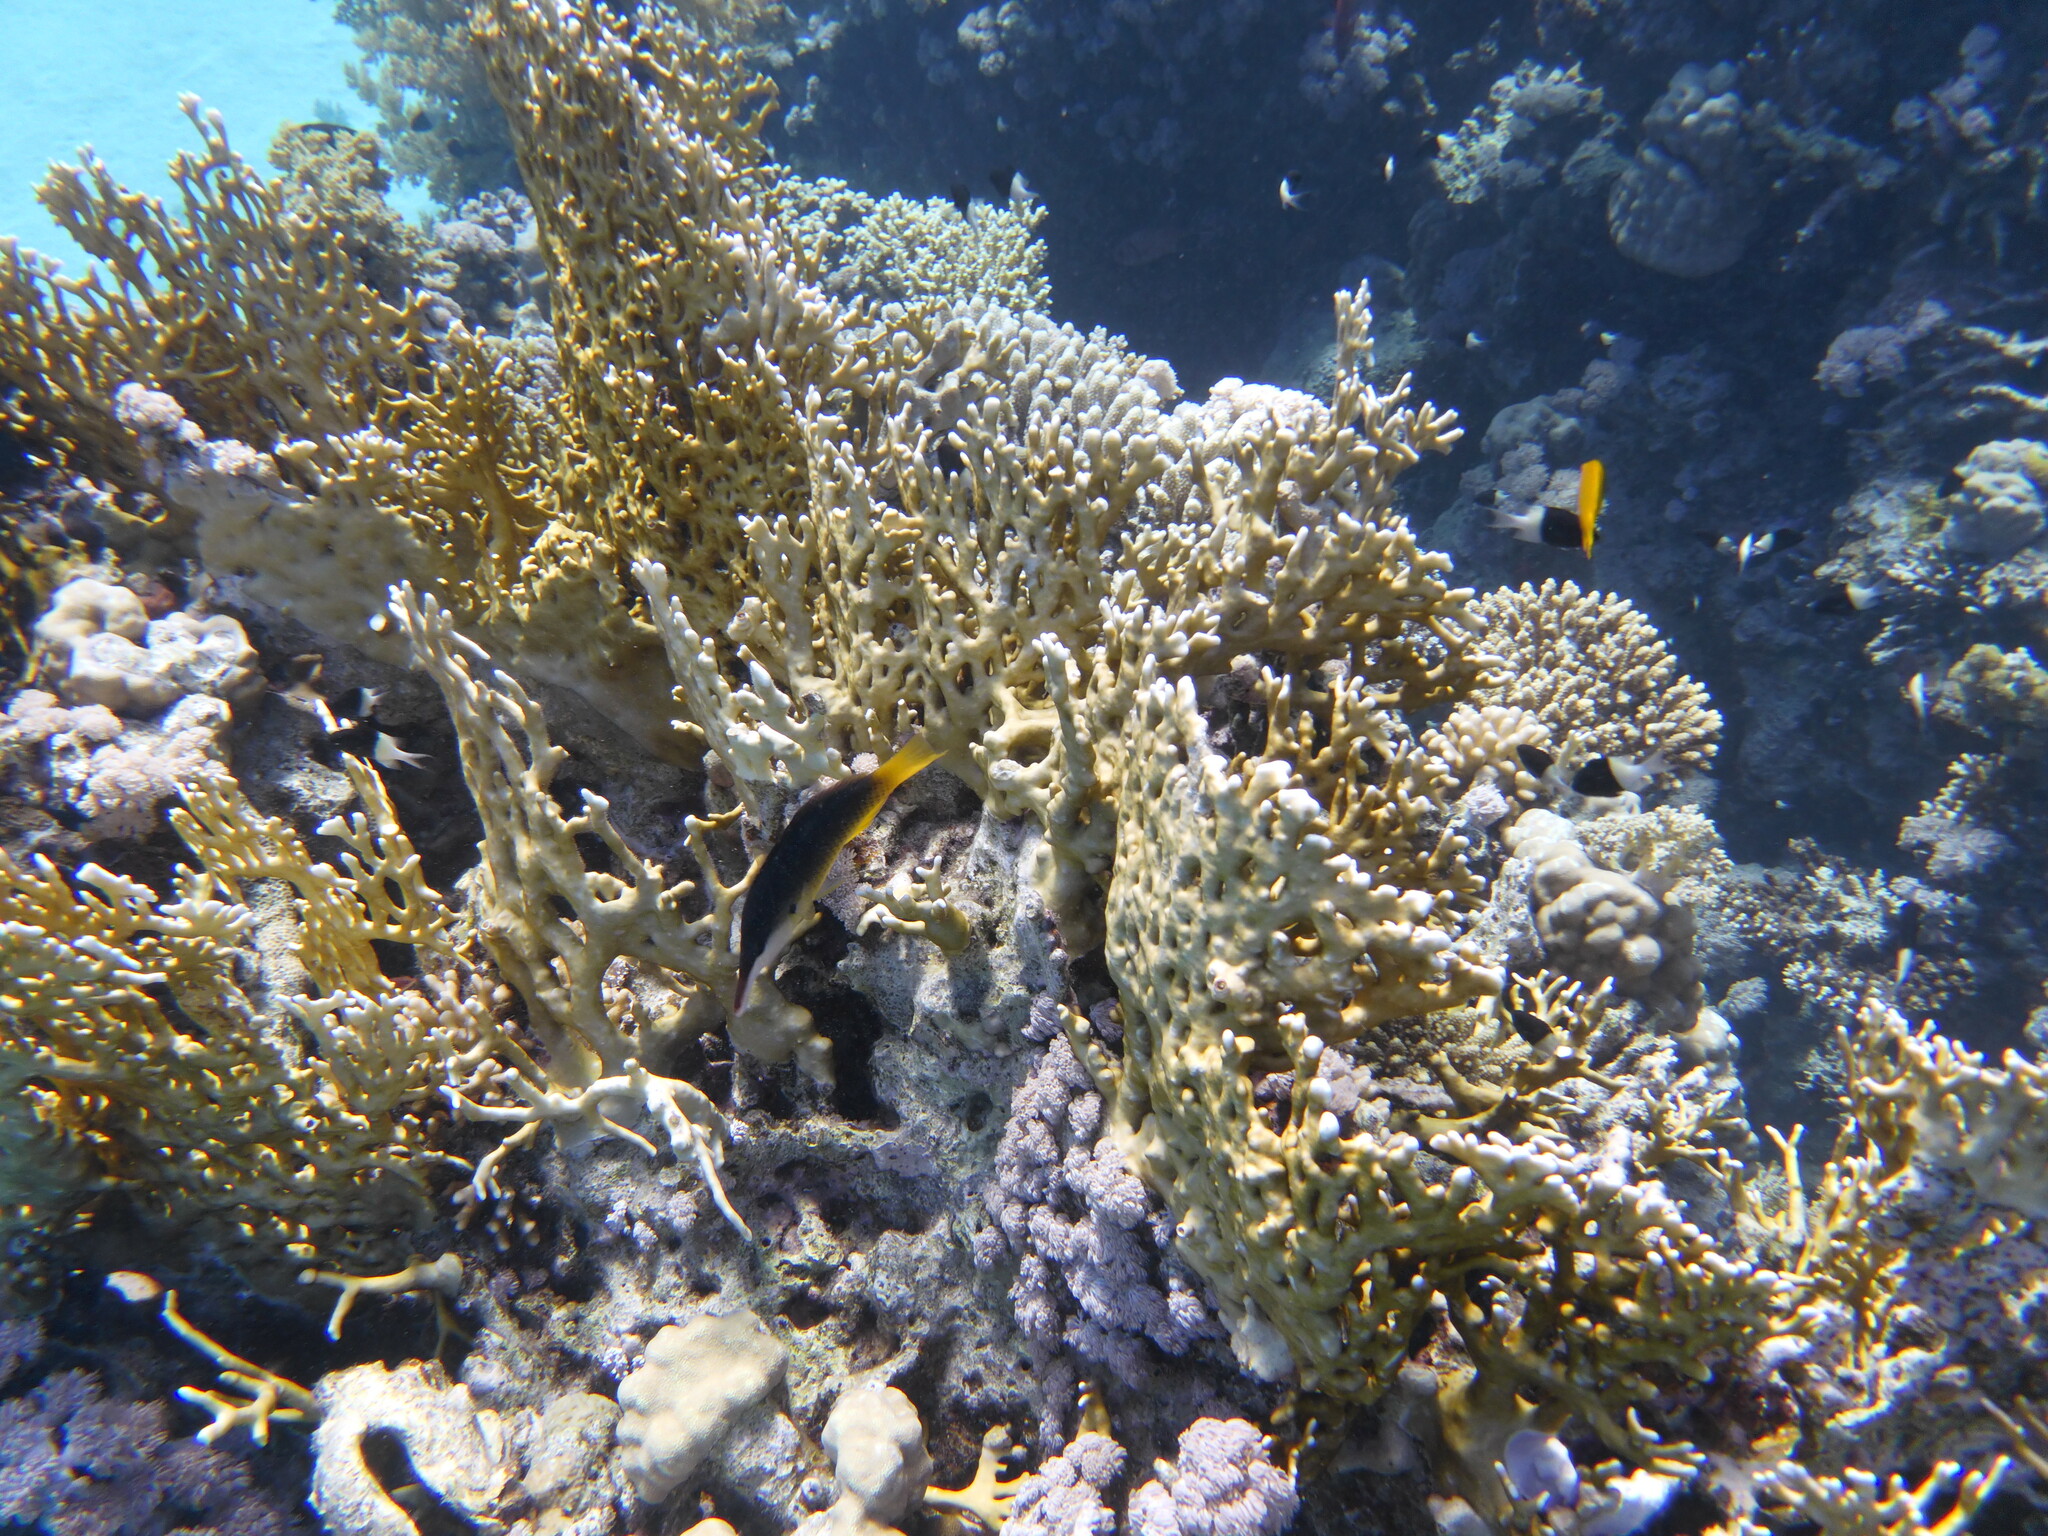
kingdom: Animalia
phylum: Chordata
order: Perciformes
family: Labridae
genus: Gomphosus
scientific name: Gomphosus klunzingeri
